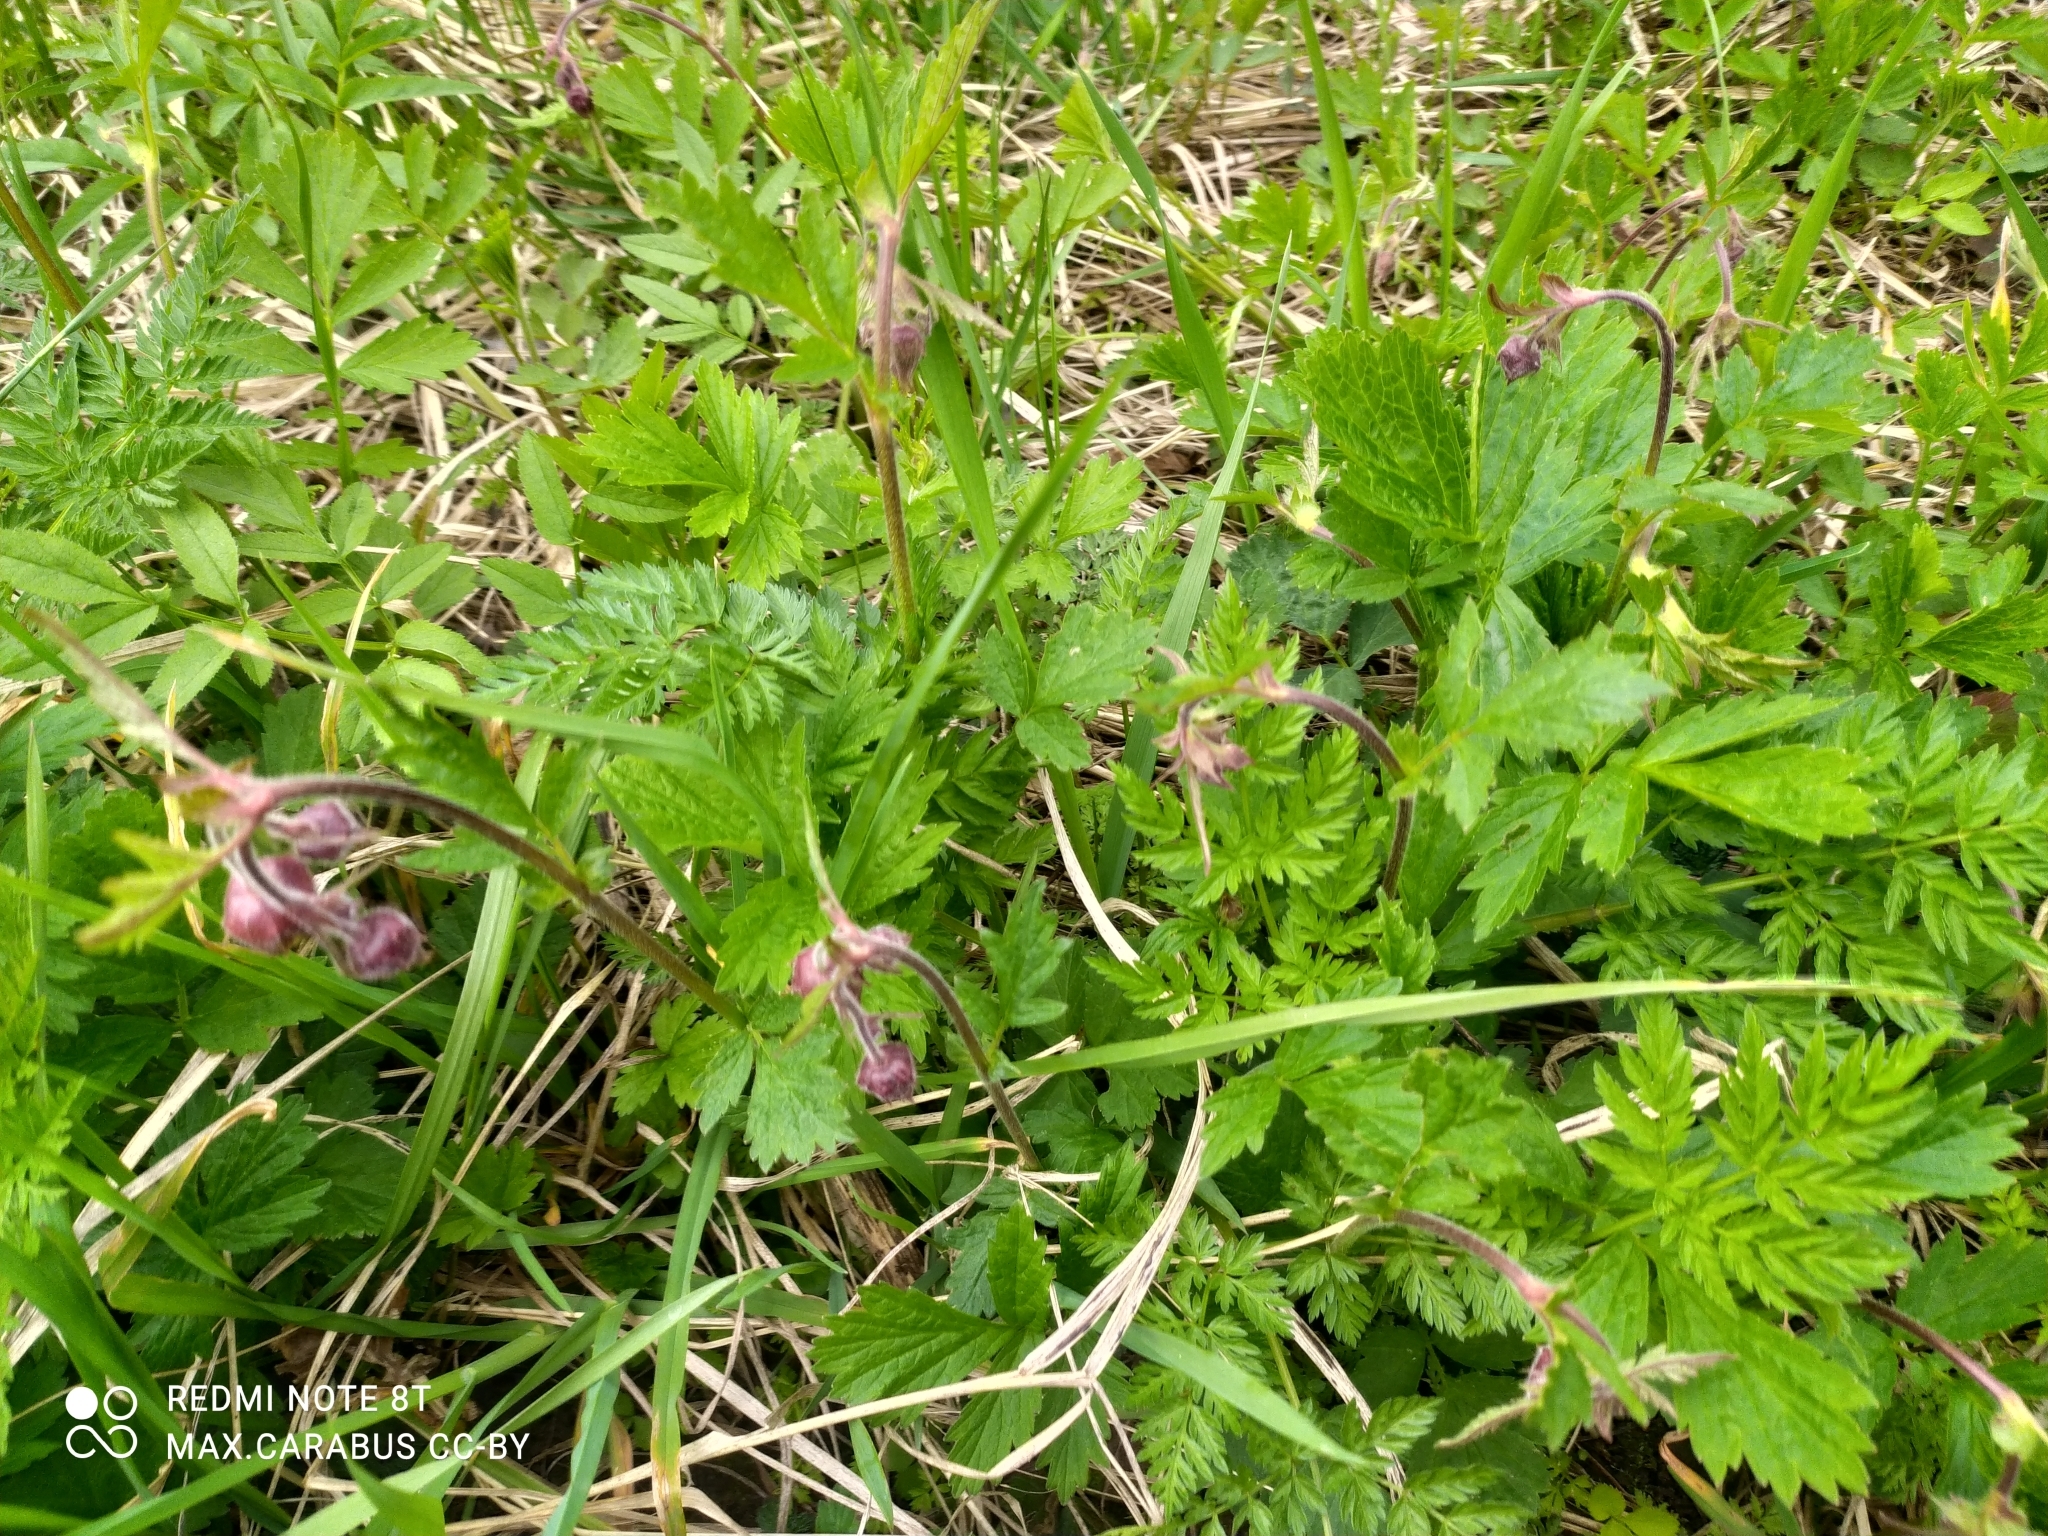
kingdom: Plantae
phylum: Tracheophyta
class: Magnoliopsida
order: Rosales
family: Rosaceae
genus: Geum
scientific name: Geum rivale
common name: Water avens
